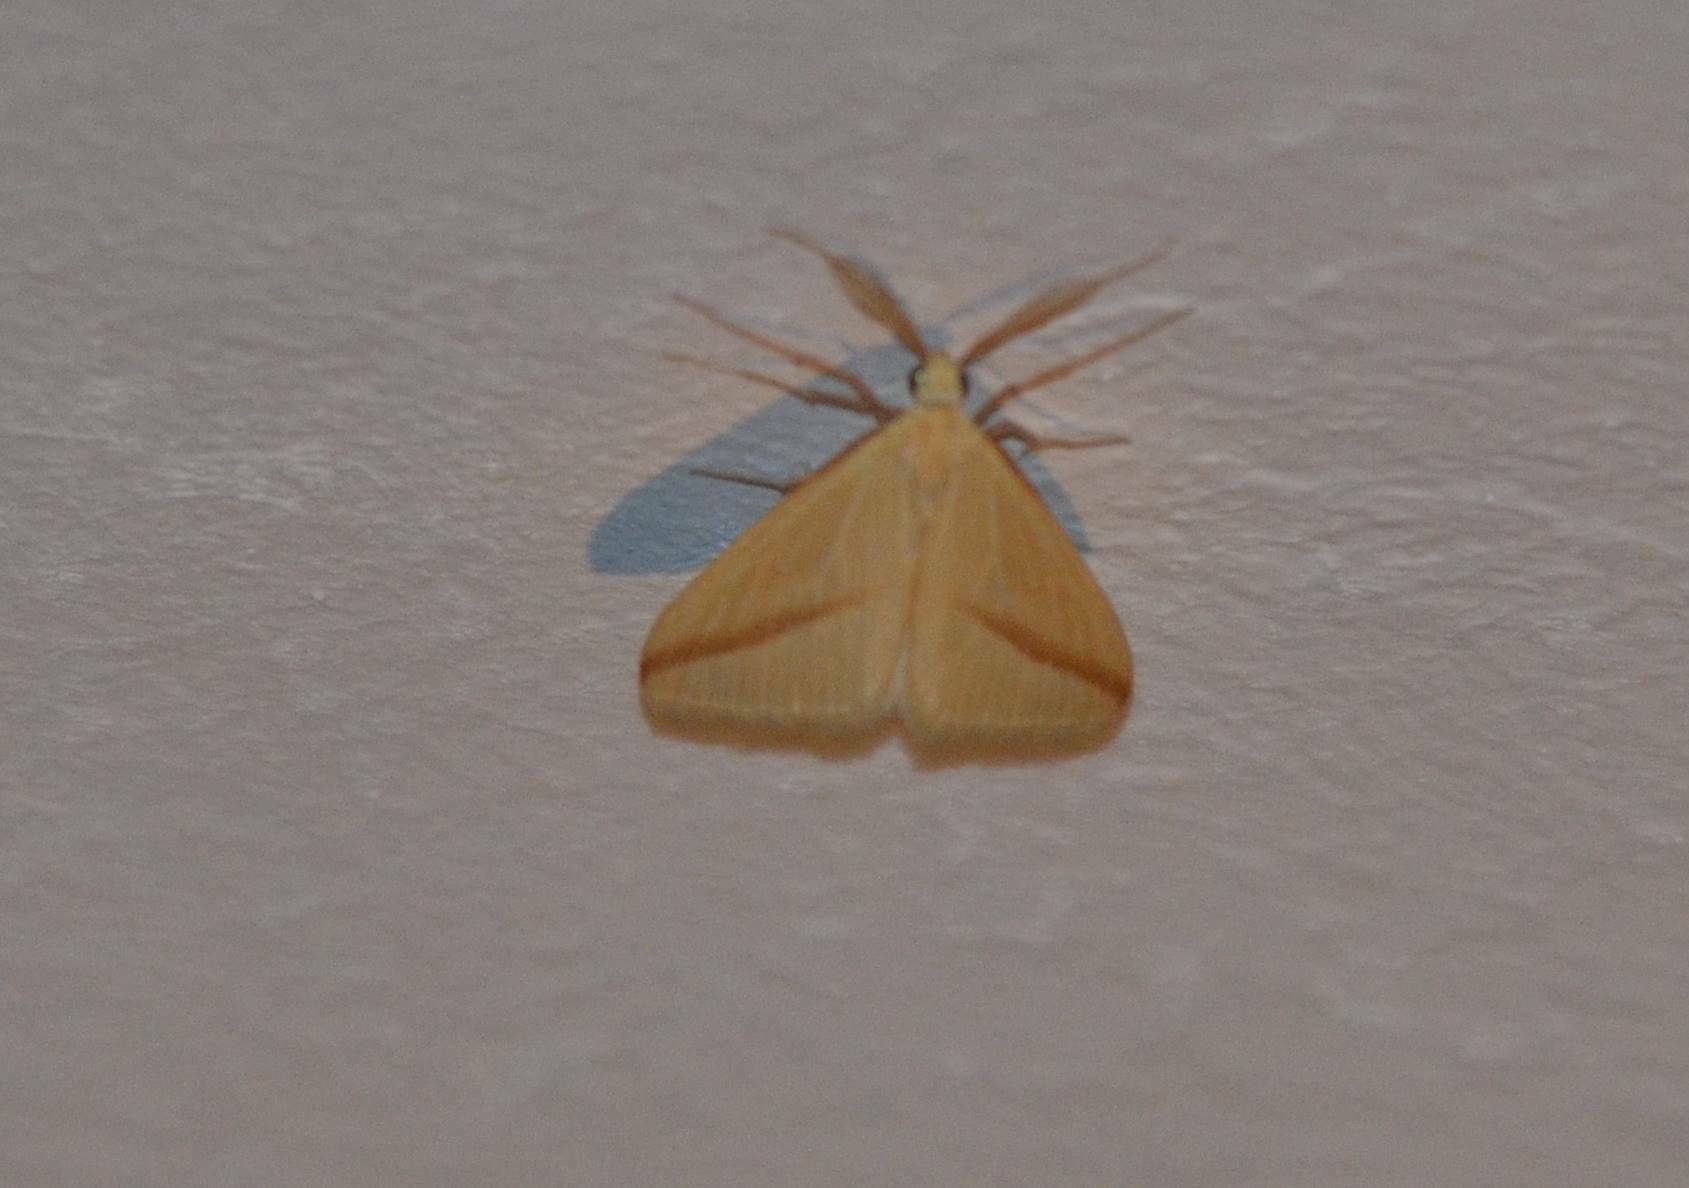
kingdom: Animalia
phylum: Arthropoda
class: Insecta
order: Lepidoptera
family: Geometridae
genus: Rhodometra
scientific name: Rhodometra sacraria
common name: Vestal
